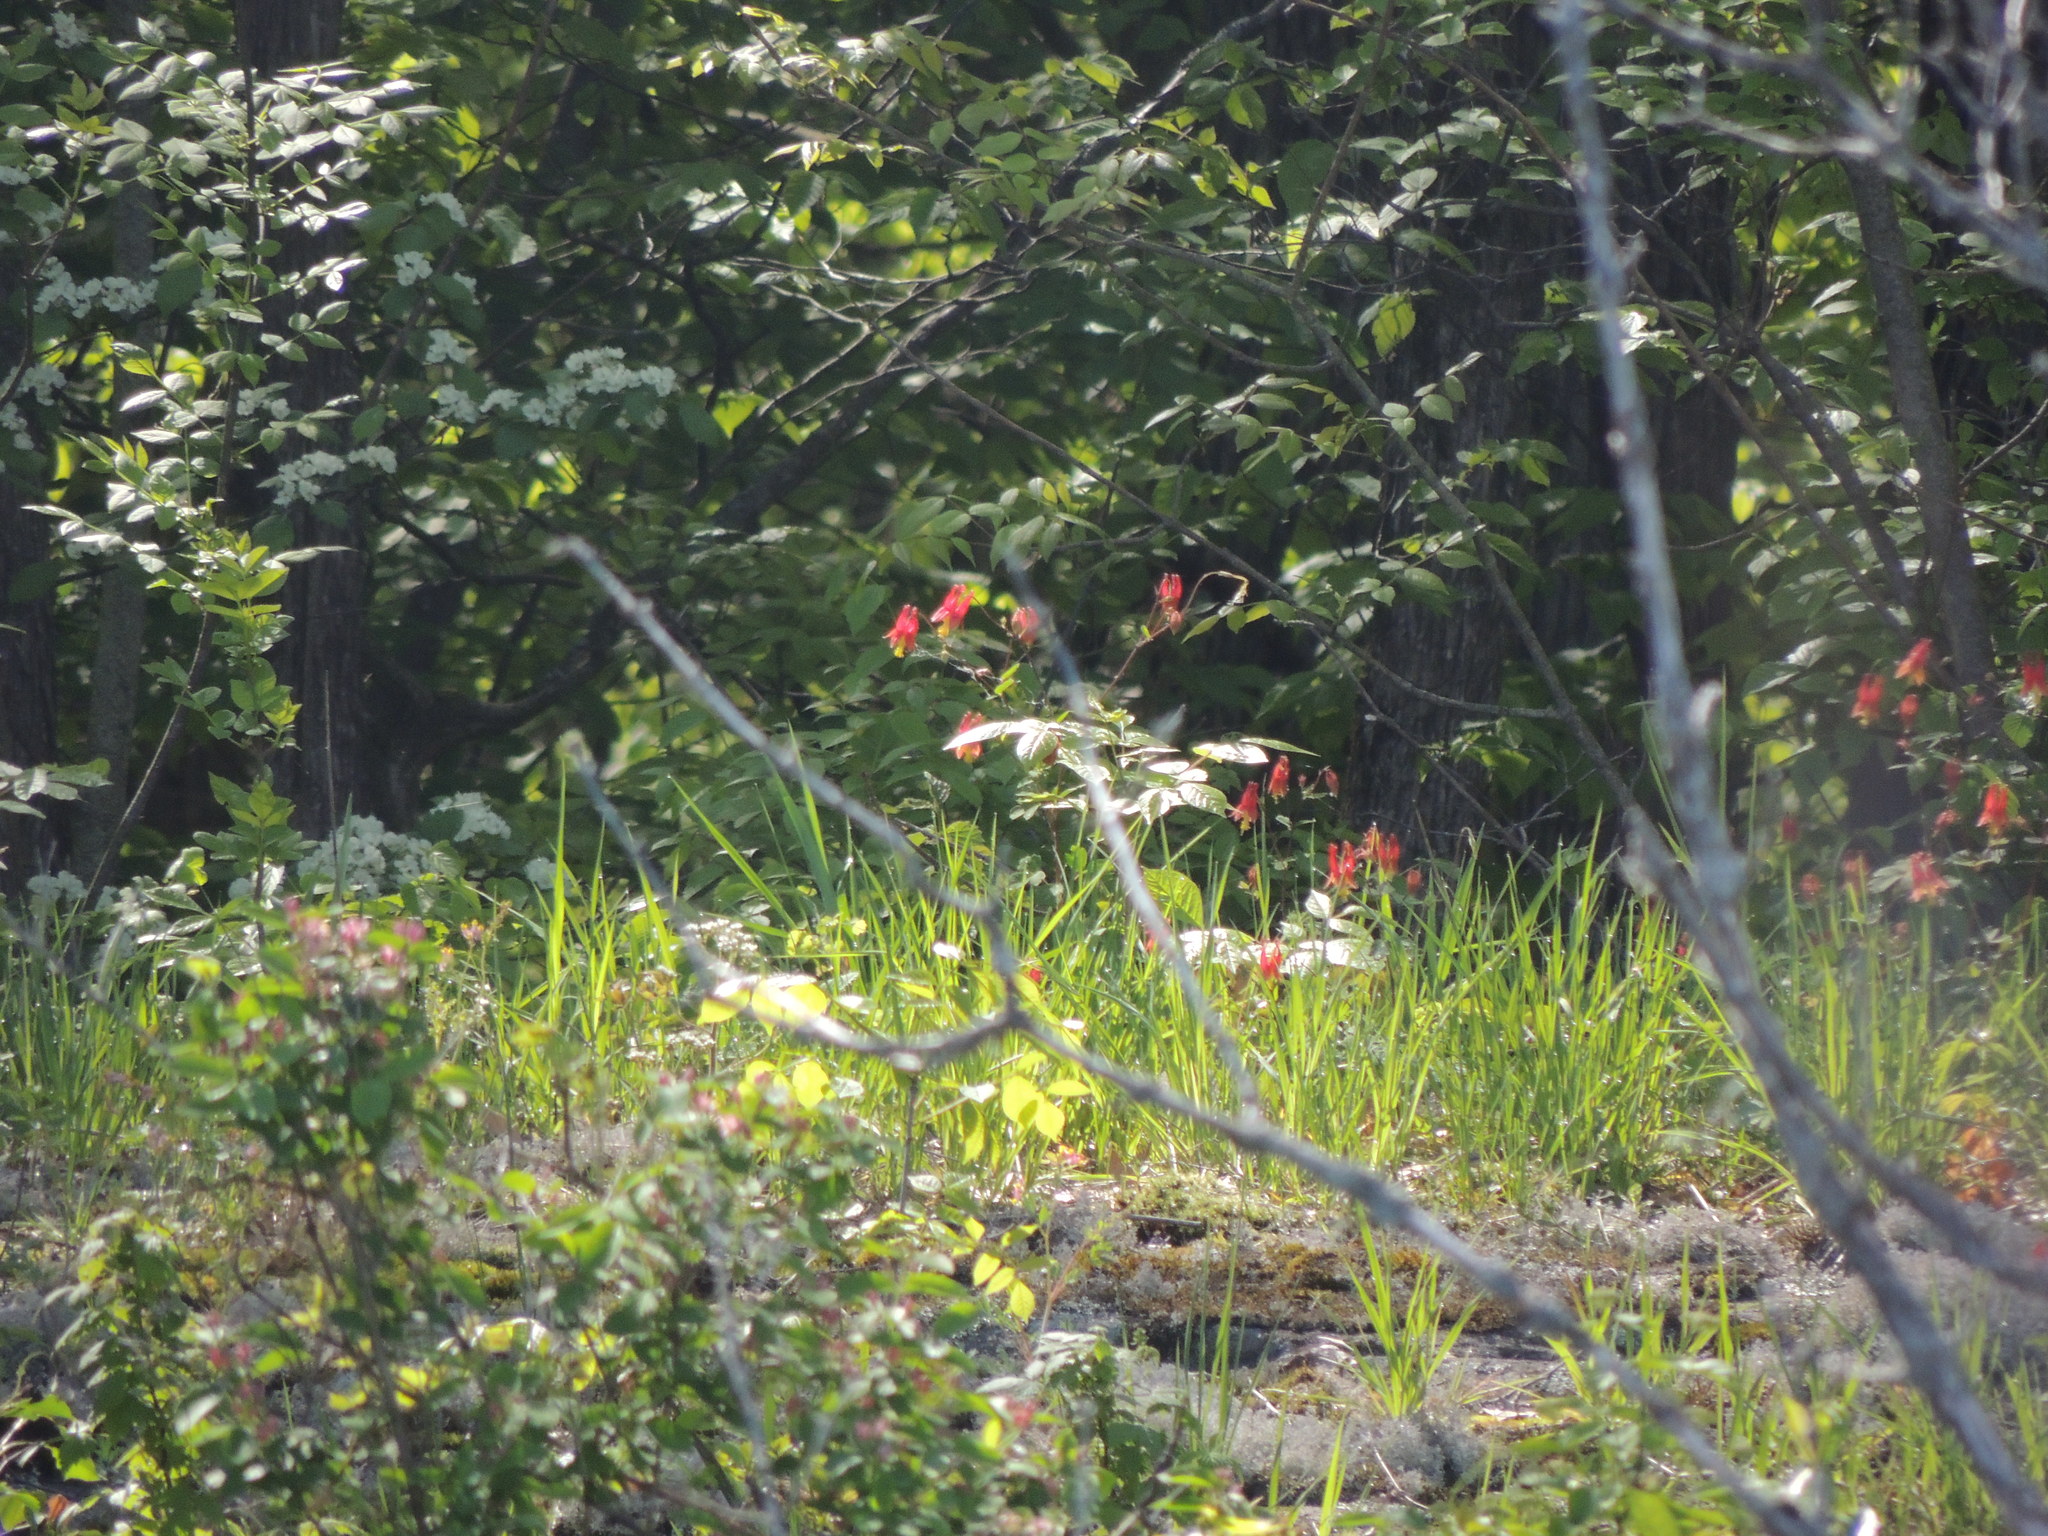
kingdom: Plantae
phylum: Tracheophyta
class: Magnoliopsida
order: Ranunculales
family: Ranunculaceae
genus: Aquilegia
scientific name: Aquilegia canadensis
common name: American columbine
